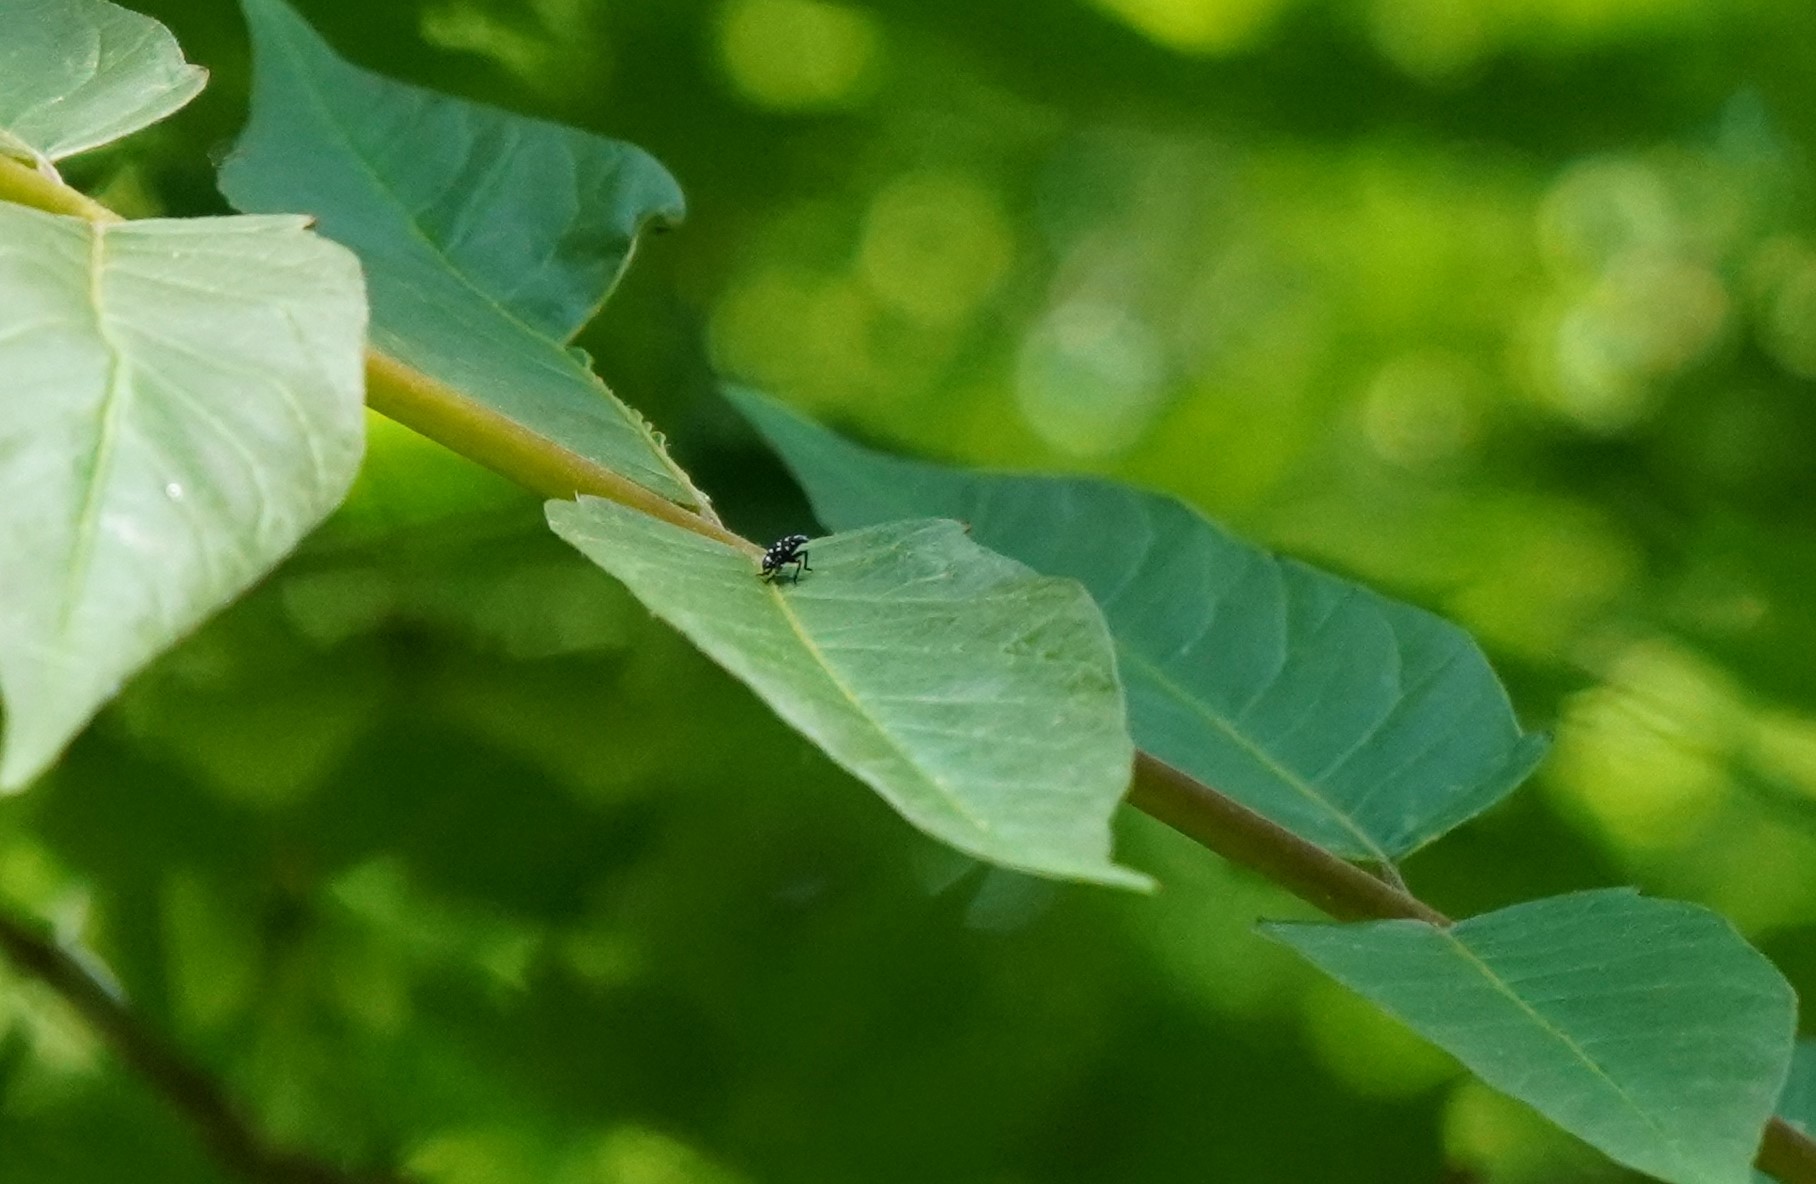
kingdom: Animalia
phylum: Arthropoda
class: Insecta
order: Hemiptera
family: Fulgoridae
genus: Lycorma
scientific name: Lycorma delicatula
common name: Spotted lanternfly
